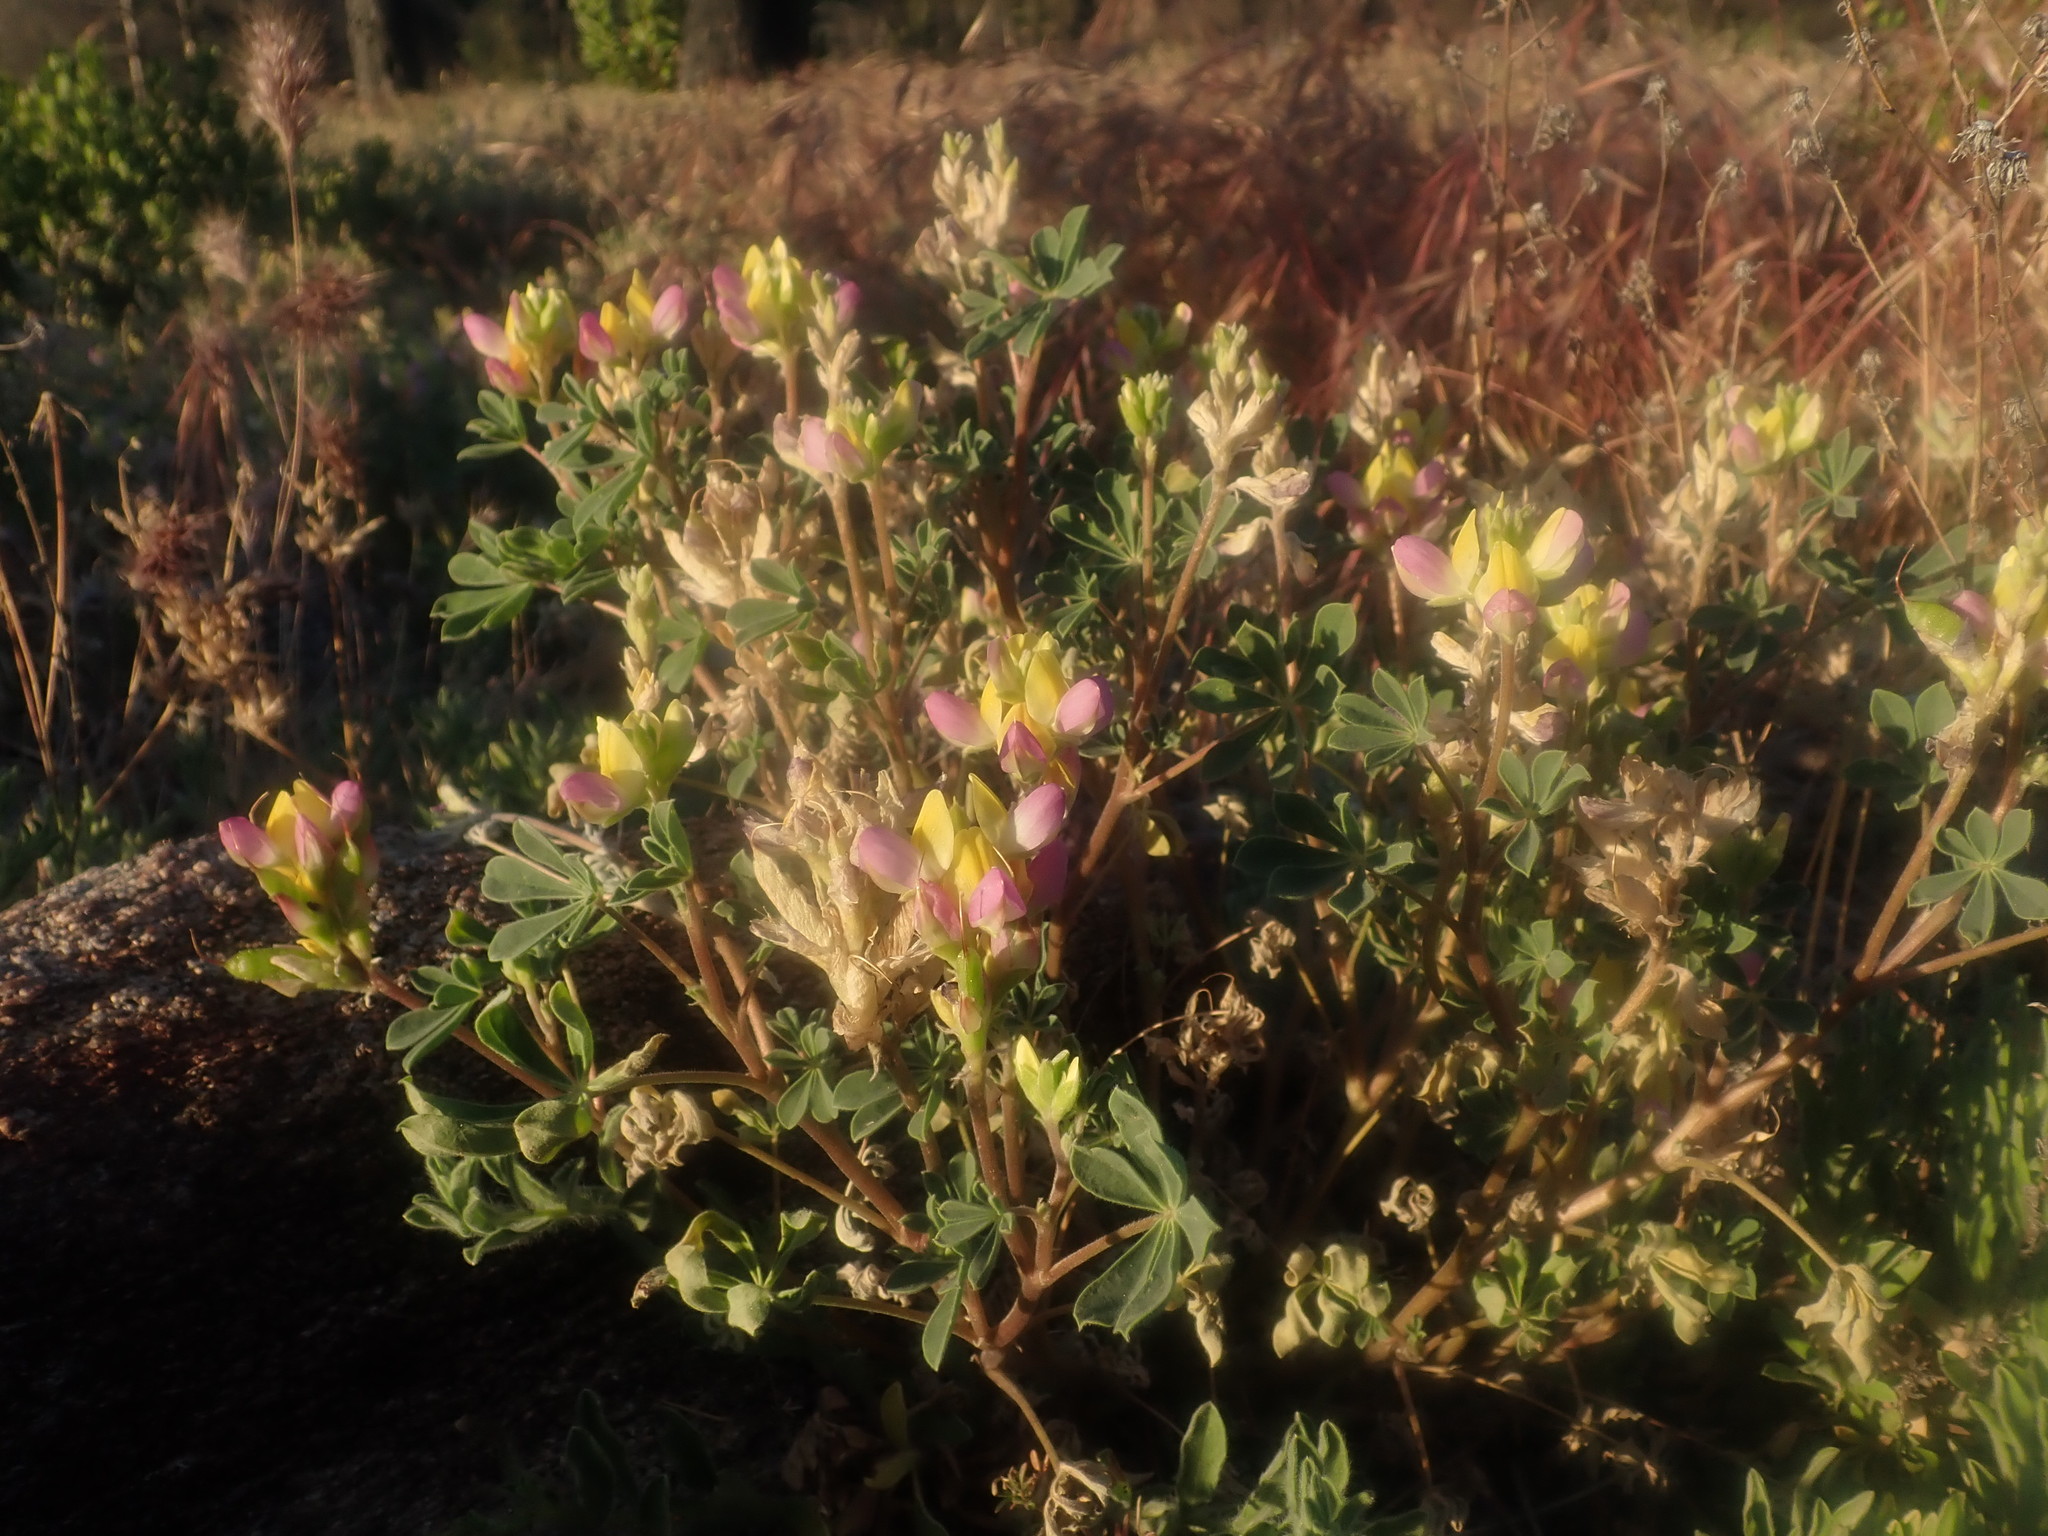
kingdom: Plantae
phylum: Tracheophyta
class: Magnoliopsida
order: Fabales
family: Fabaceae
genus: Lupinus
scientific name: Lupinus stiversii
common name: Harlequin lupine
